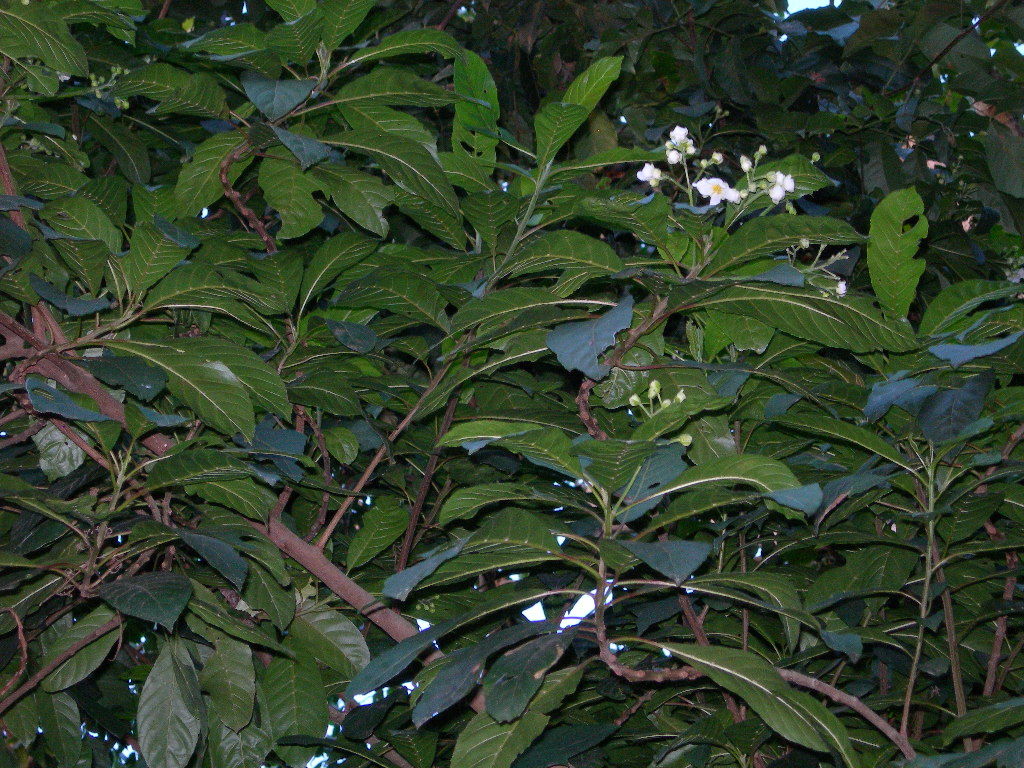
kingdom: Plantae
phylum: Tracheophyta
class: Magnoliopsida
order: Ericales
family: Actinidiaceae
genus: Saurauia
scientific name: Saurauia yasicae
